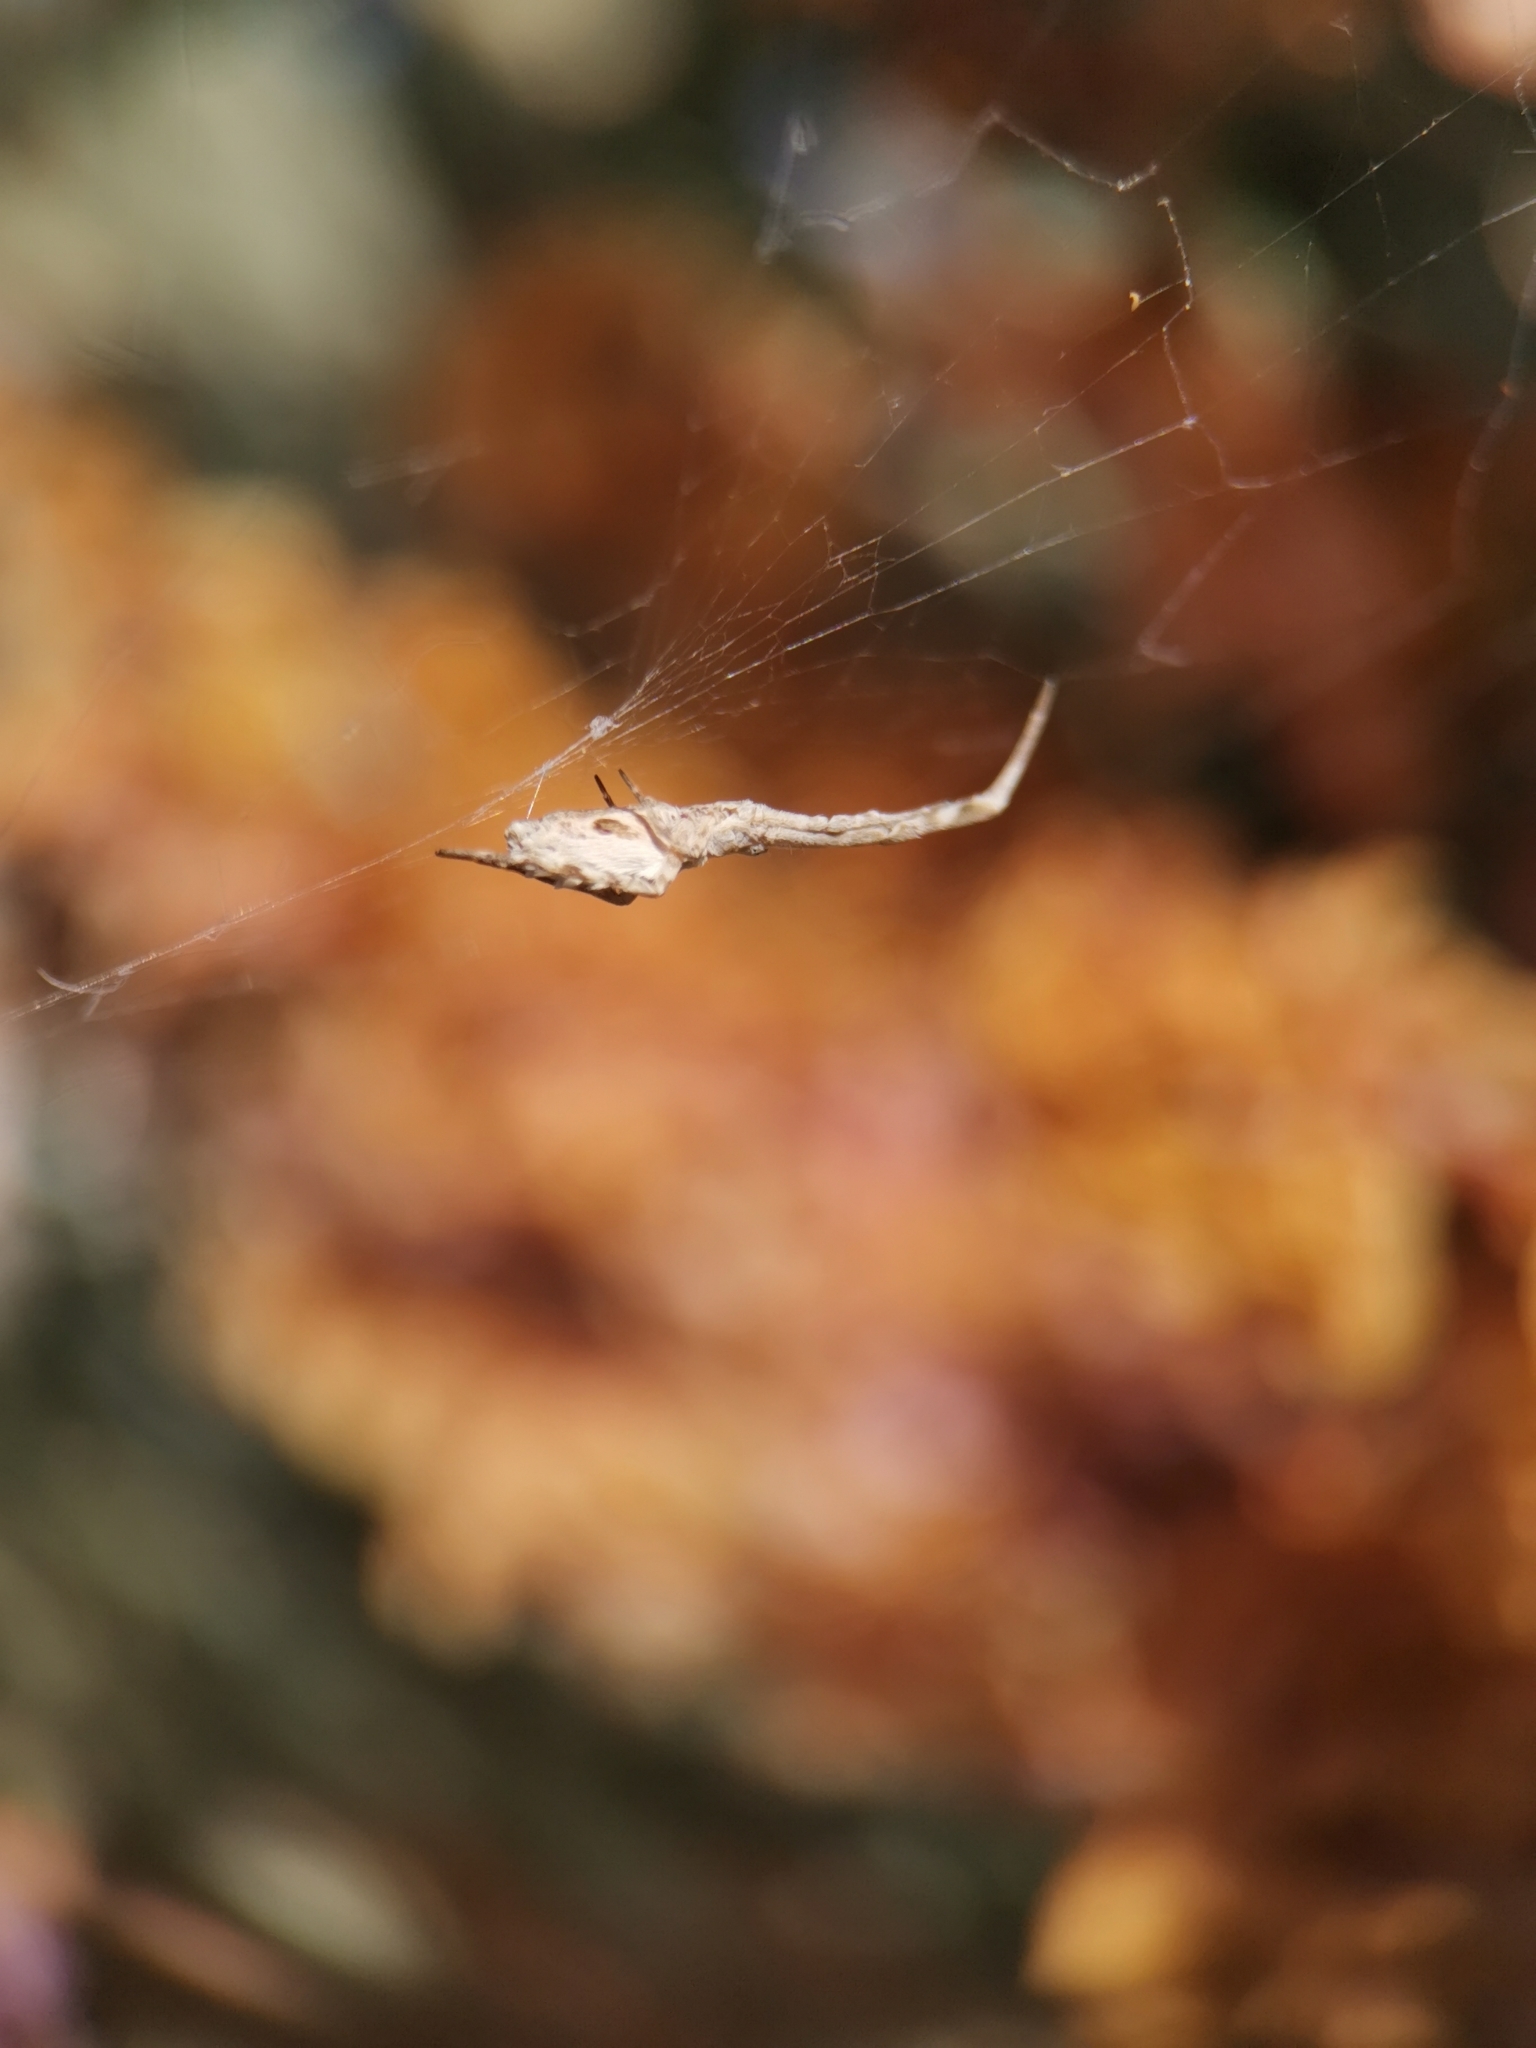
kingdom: Animalia
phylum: Arthropoda
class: Arachnida
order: Araneae
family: Uloboridae
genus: Uloborus
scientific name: Uloborus walckenaerius
